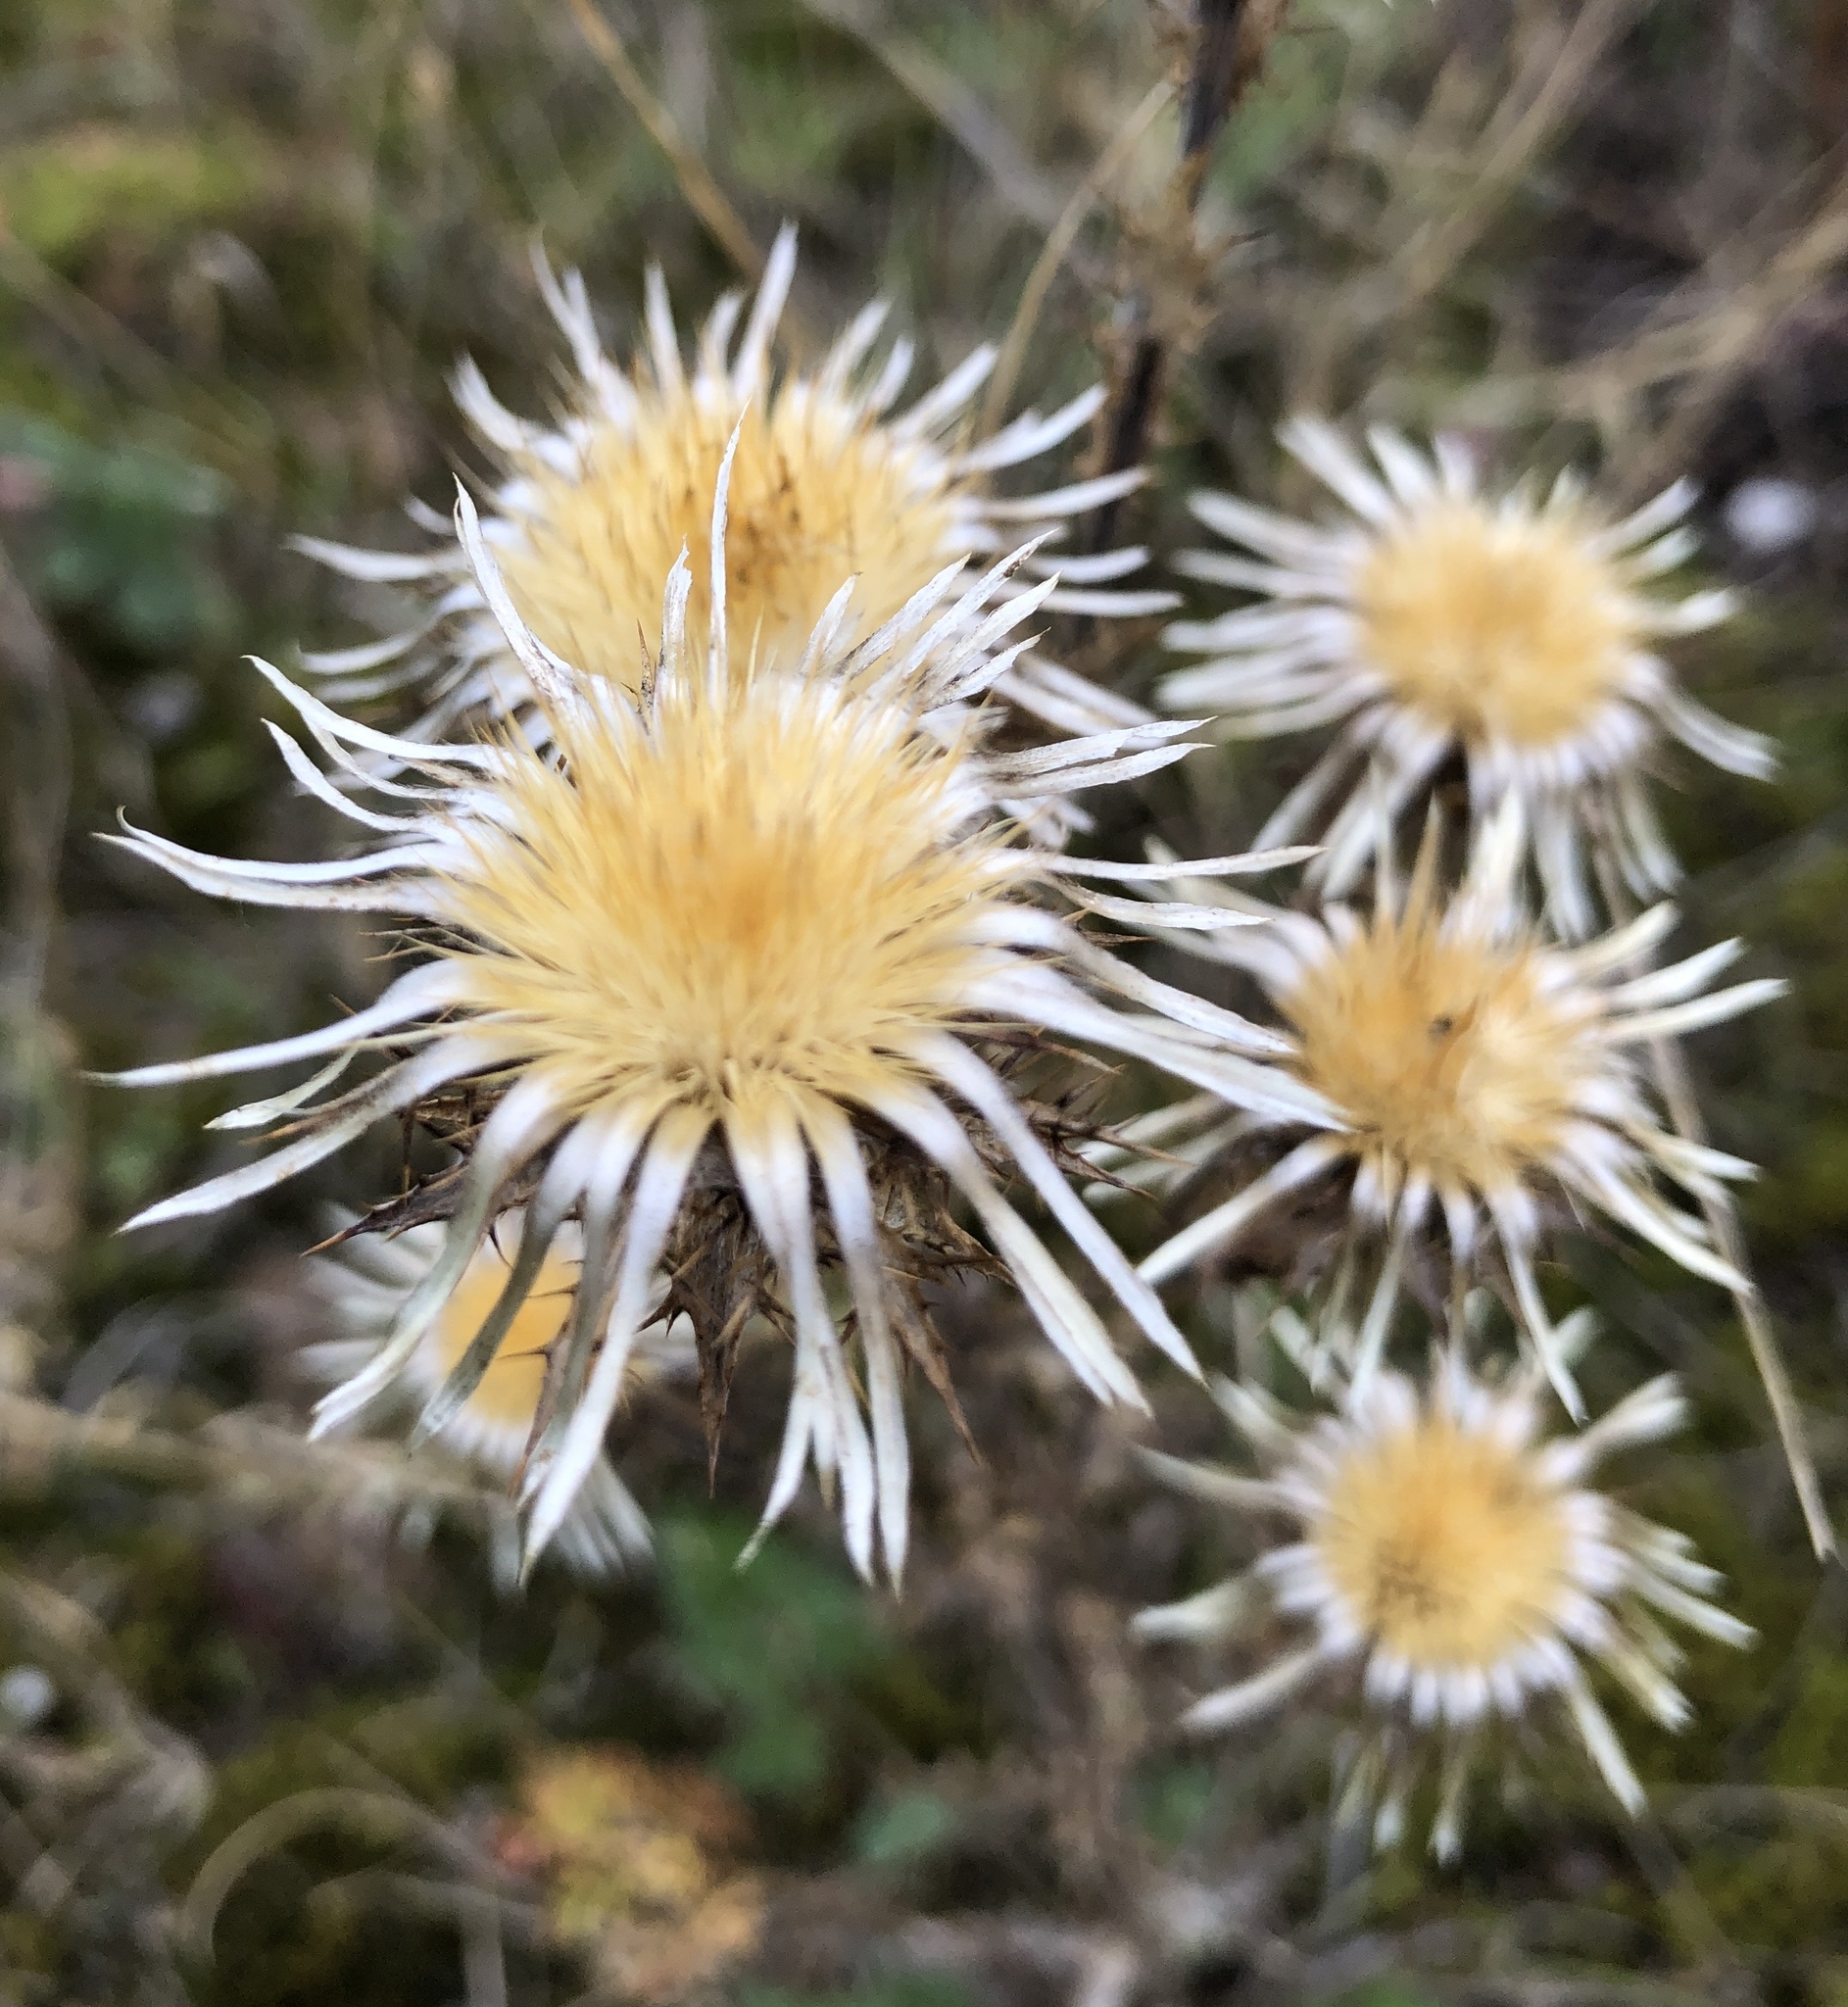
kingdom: Plantae
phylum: Tracheophyta
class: Magnoliopsida
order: Asterales
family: Asteraceae
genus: Carlina
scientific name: Carlina vulgaris
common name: Carline thistle
